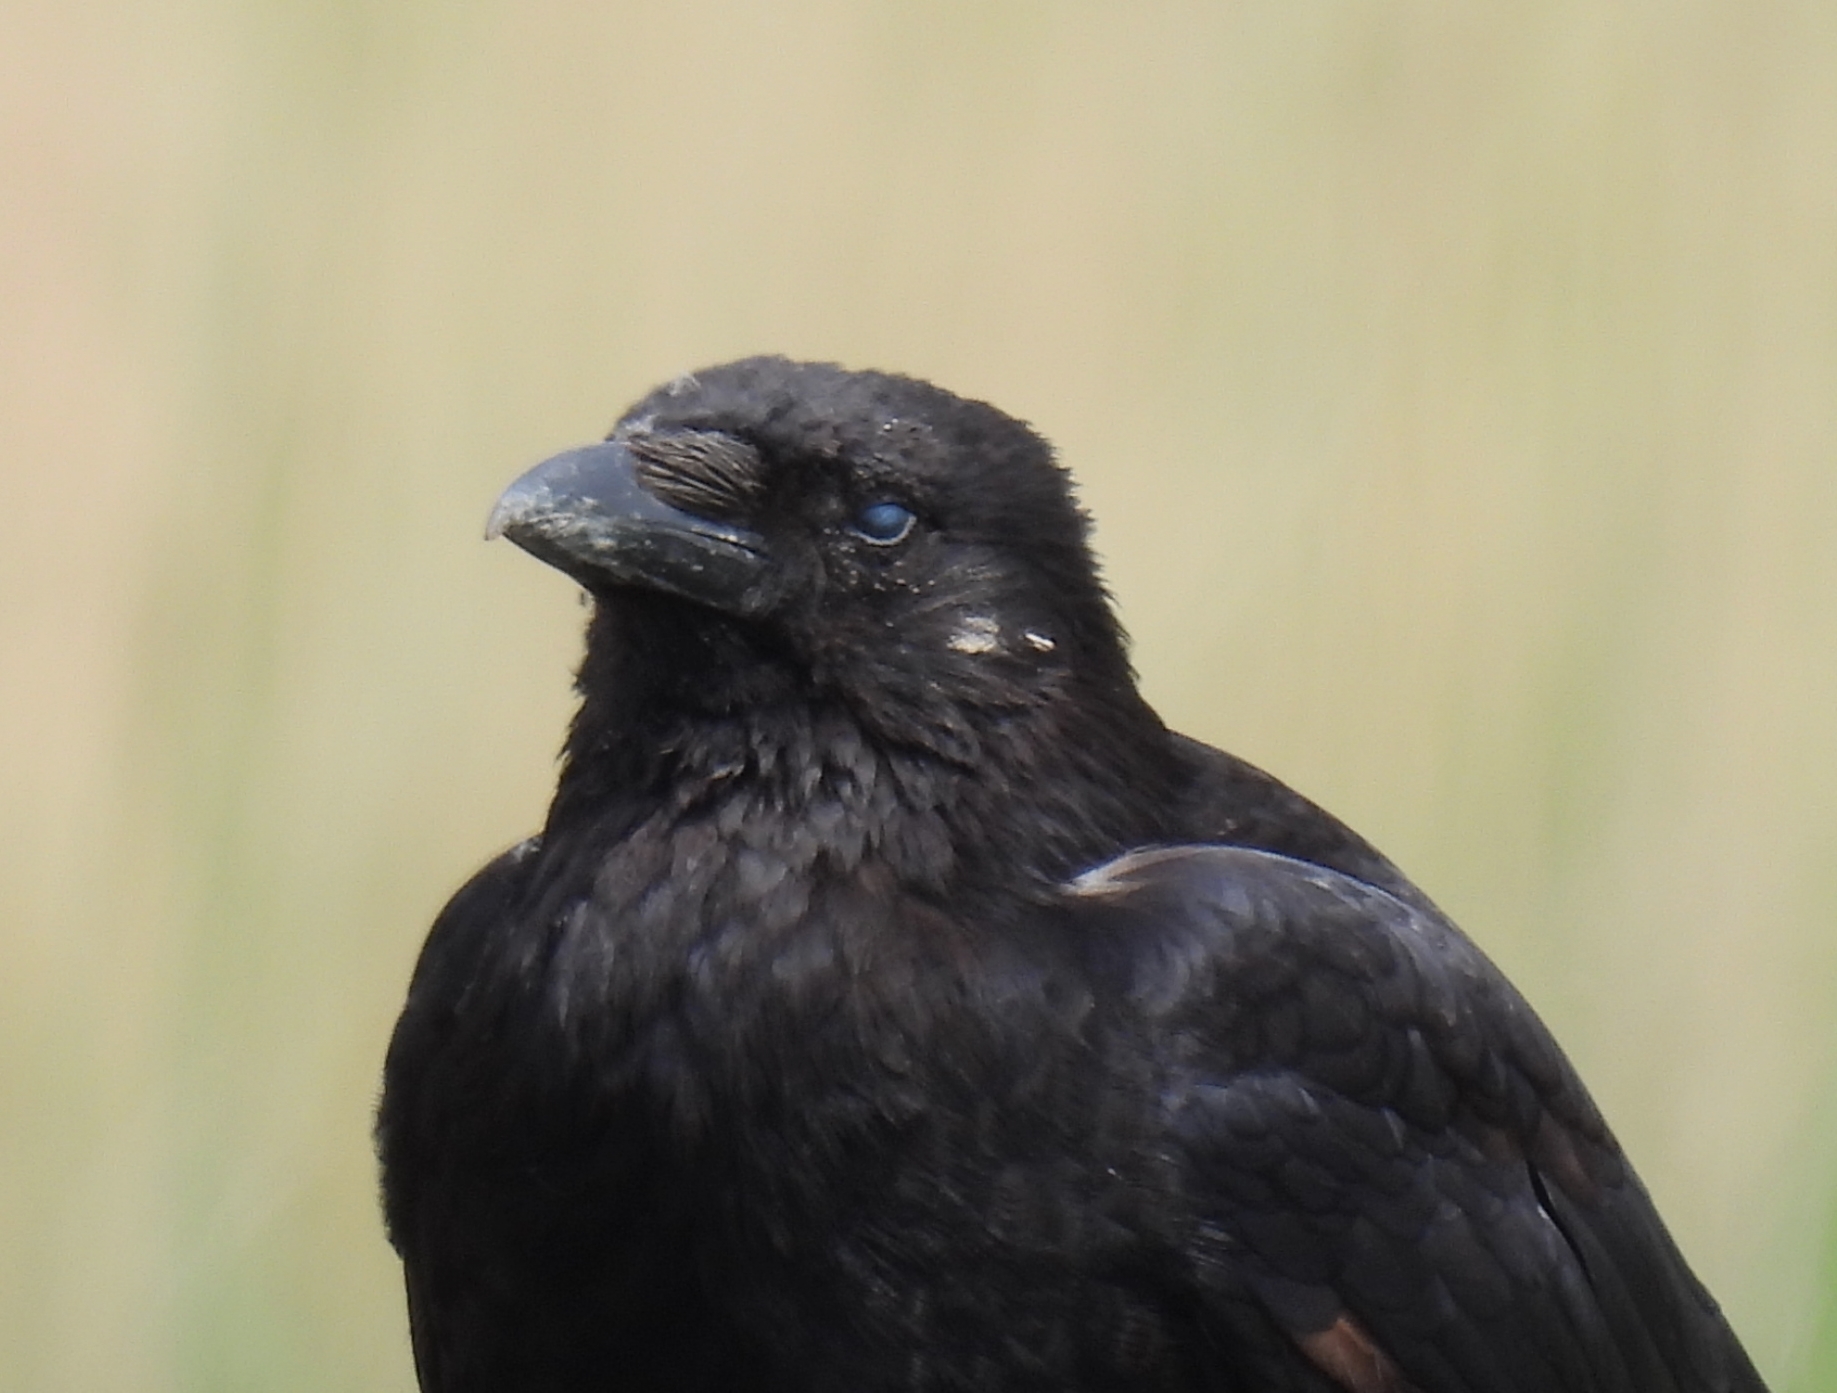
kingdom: Animalia
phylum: Chordata
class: Aves
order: Passeriformes
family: Corvidae
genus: Corvus
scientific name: Corvus corone
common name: Carrion crow
